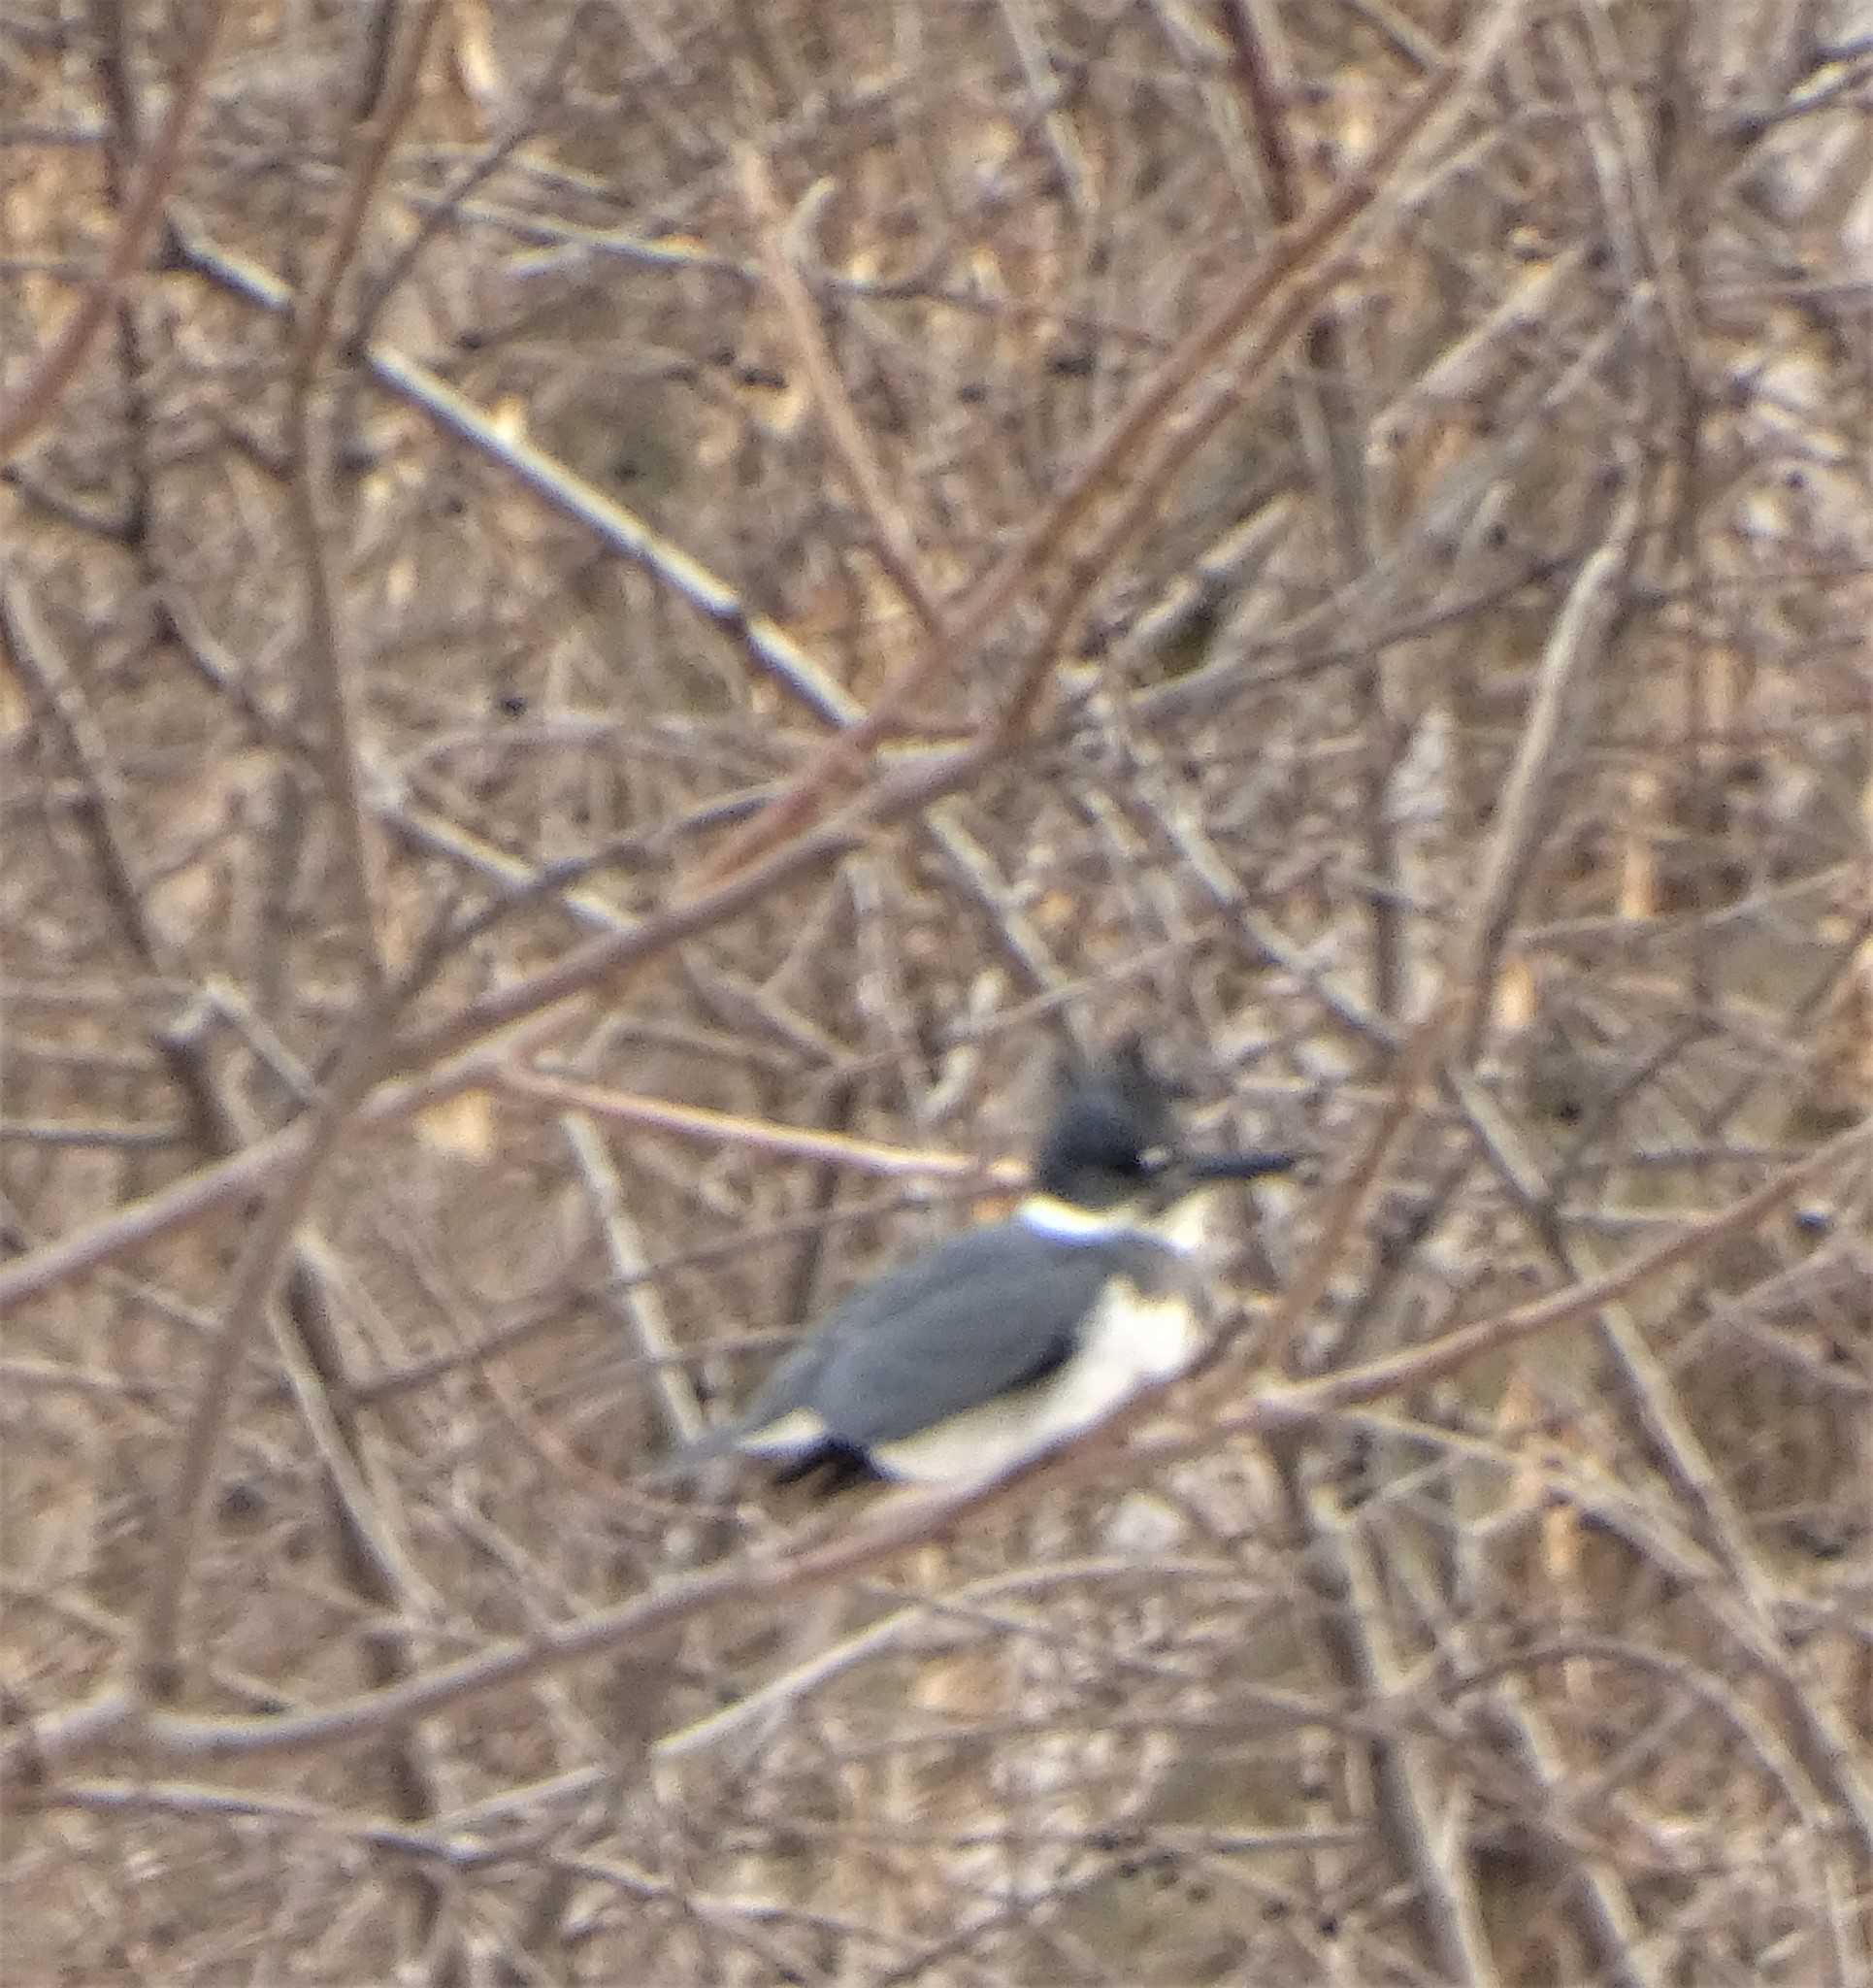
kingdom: Animalia
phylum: Chordata
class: Aves
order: Coraciiformes
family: Alcedinidae
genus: Megaceryle
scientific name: Megaceryle alcyon
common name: Belted kingfisher
